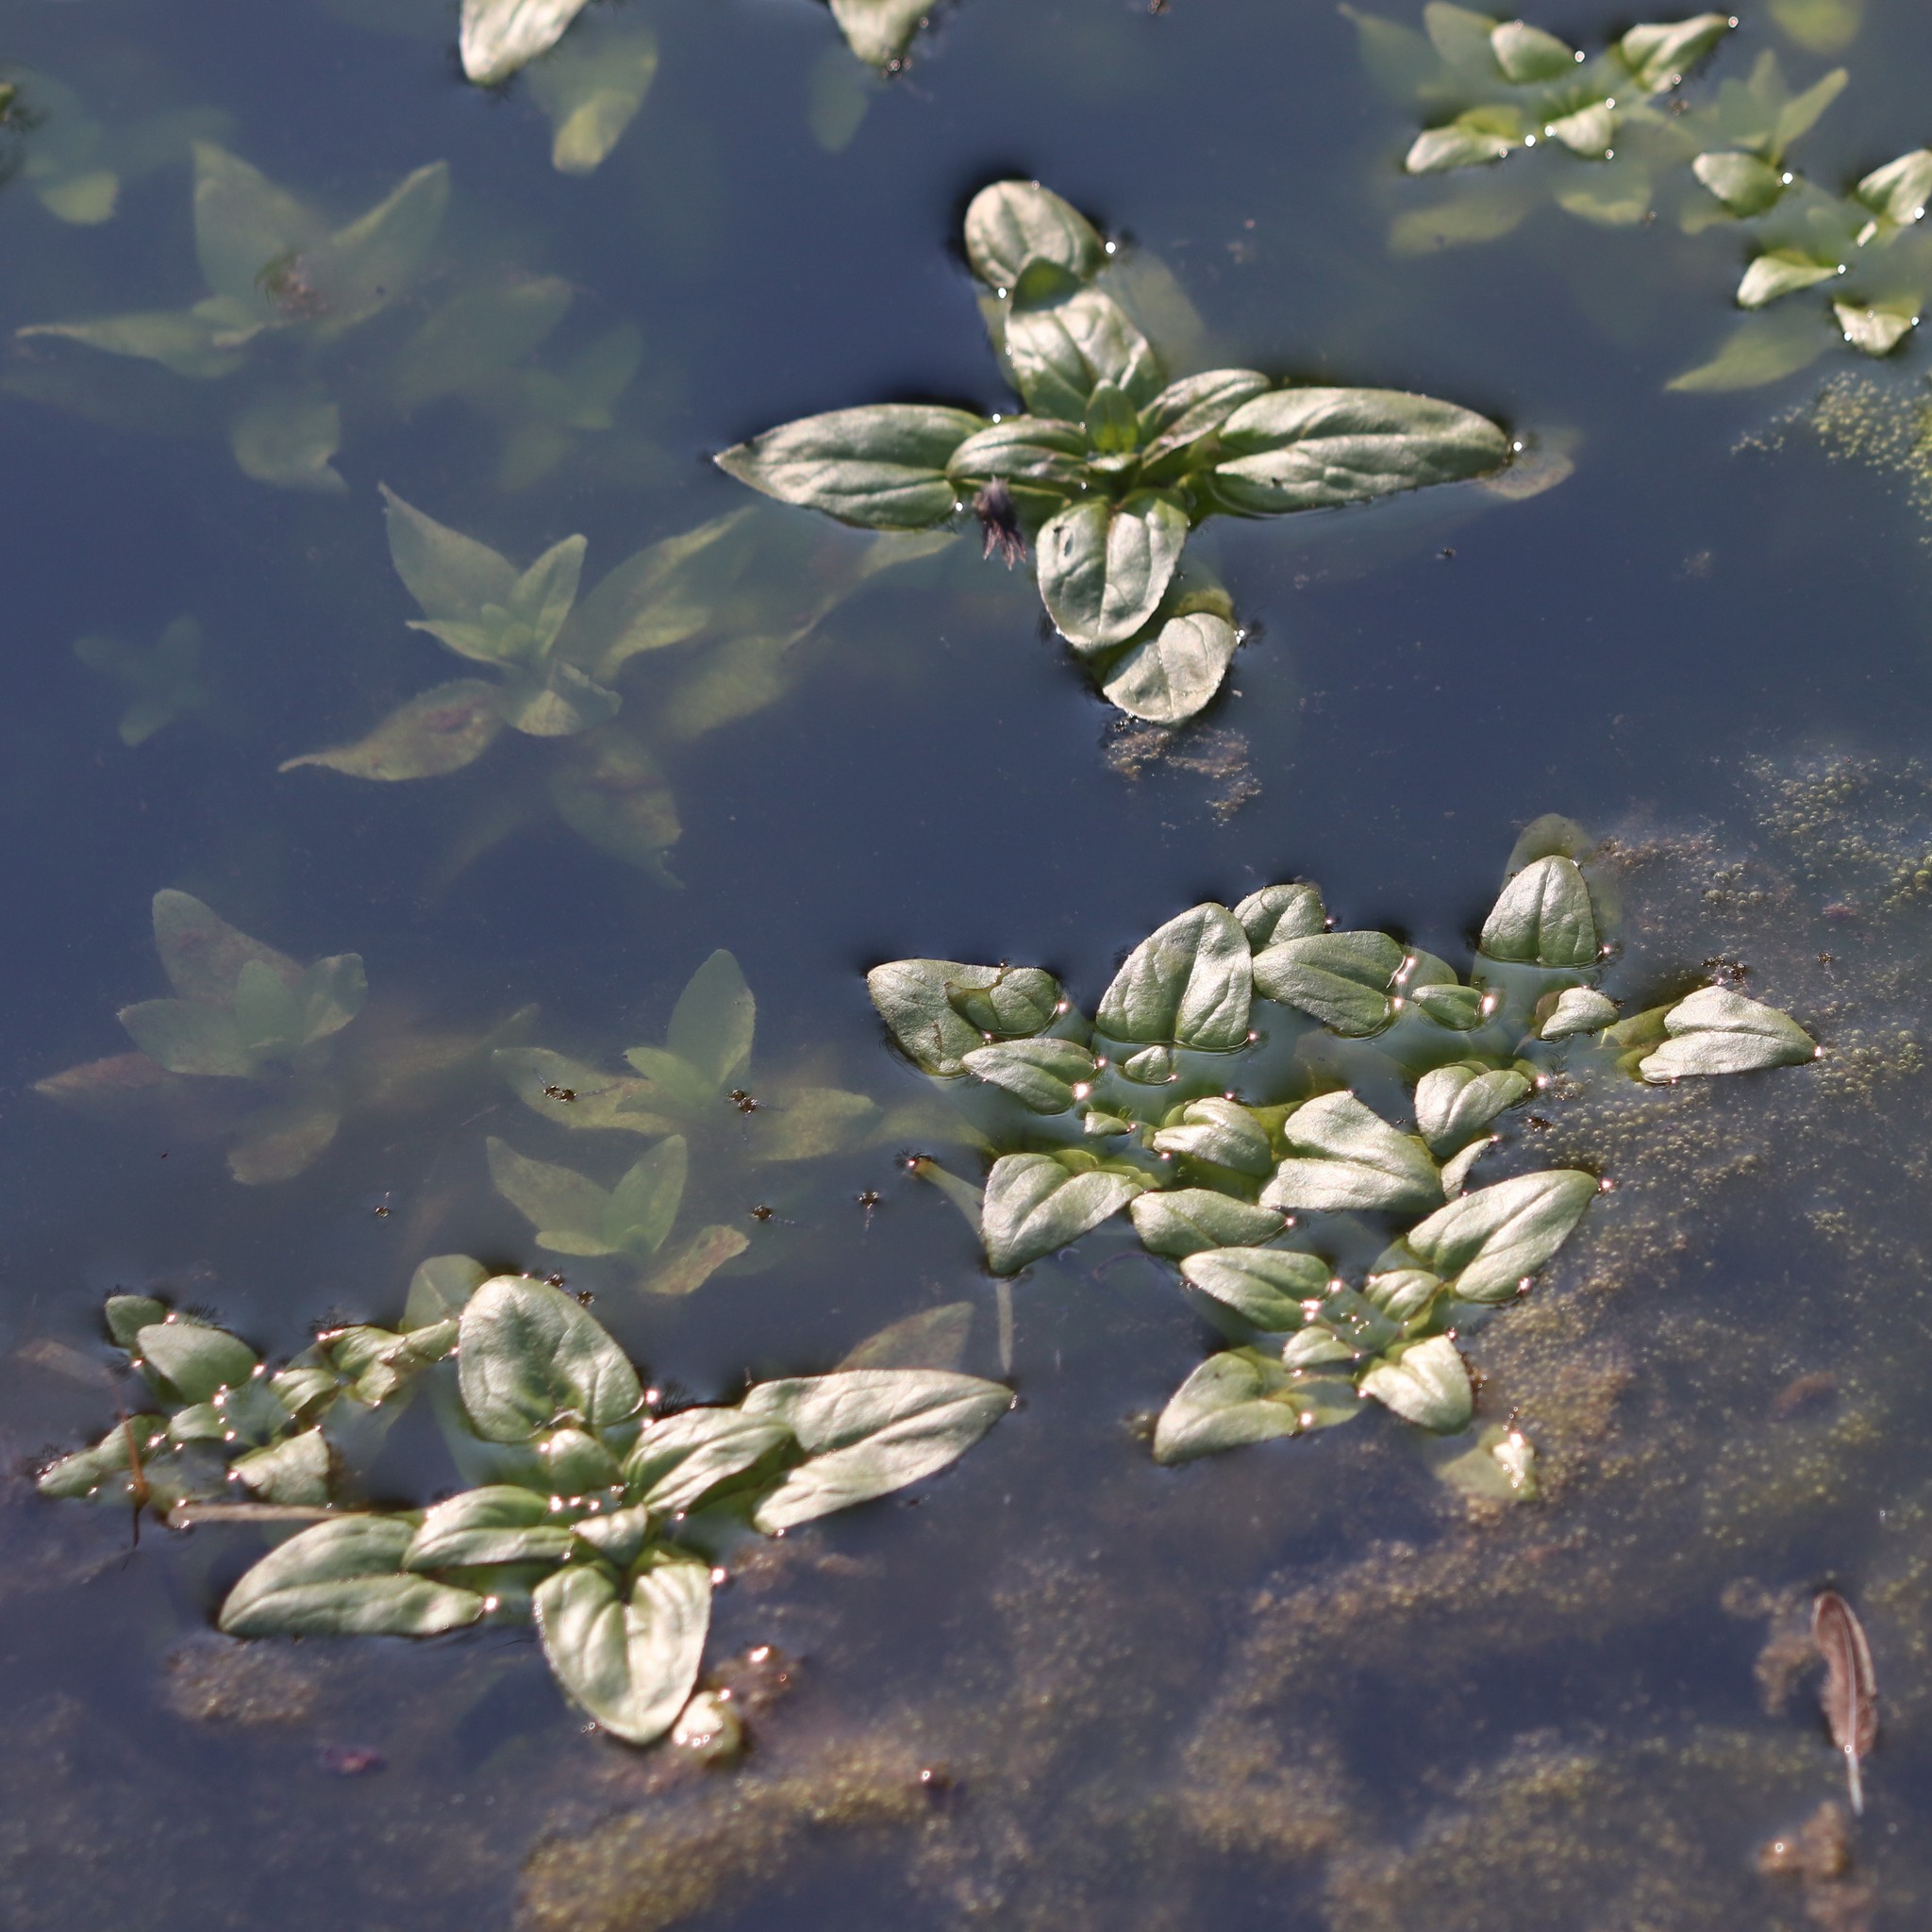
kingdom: Plantae
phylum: Tracheophyta
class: Magnoliopsida
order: Myrtales
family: Onagraceae
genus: Ludwigia
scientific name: Ludwigia palustris
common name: Hampshire-purslane
